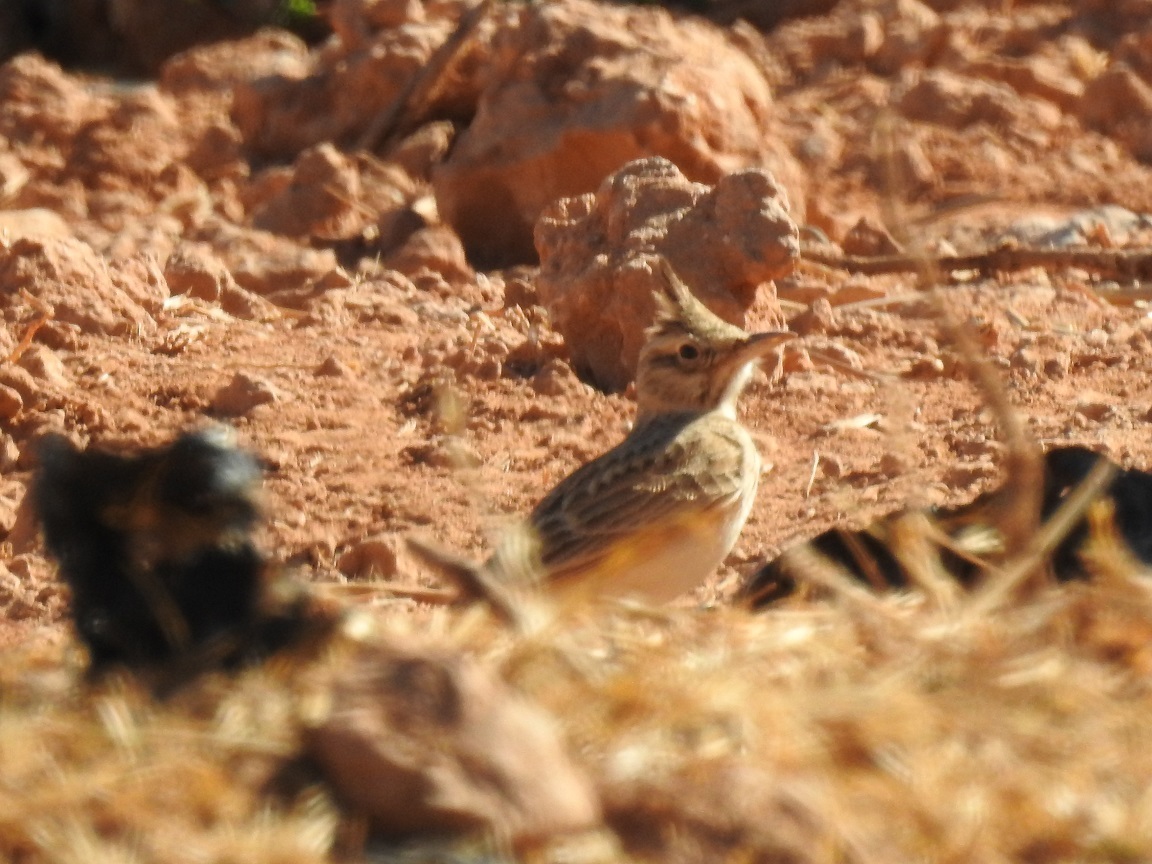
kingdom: Animalia
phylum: Chordata
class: Aves
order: Passeriformes
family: Alaudidae
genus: Galerida
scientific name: Galerida cristata
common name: Crested lark
